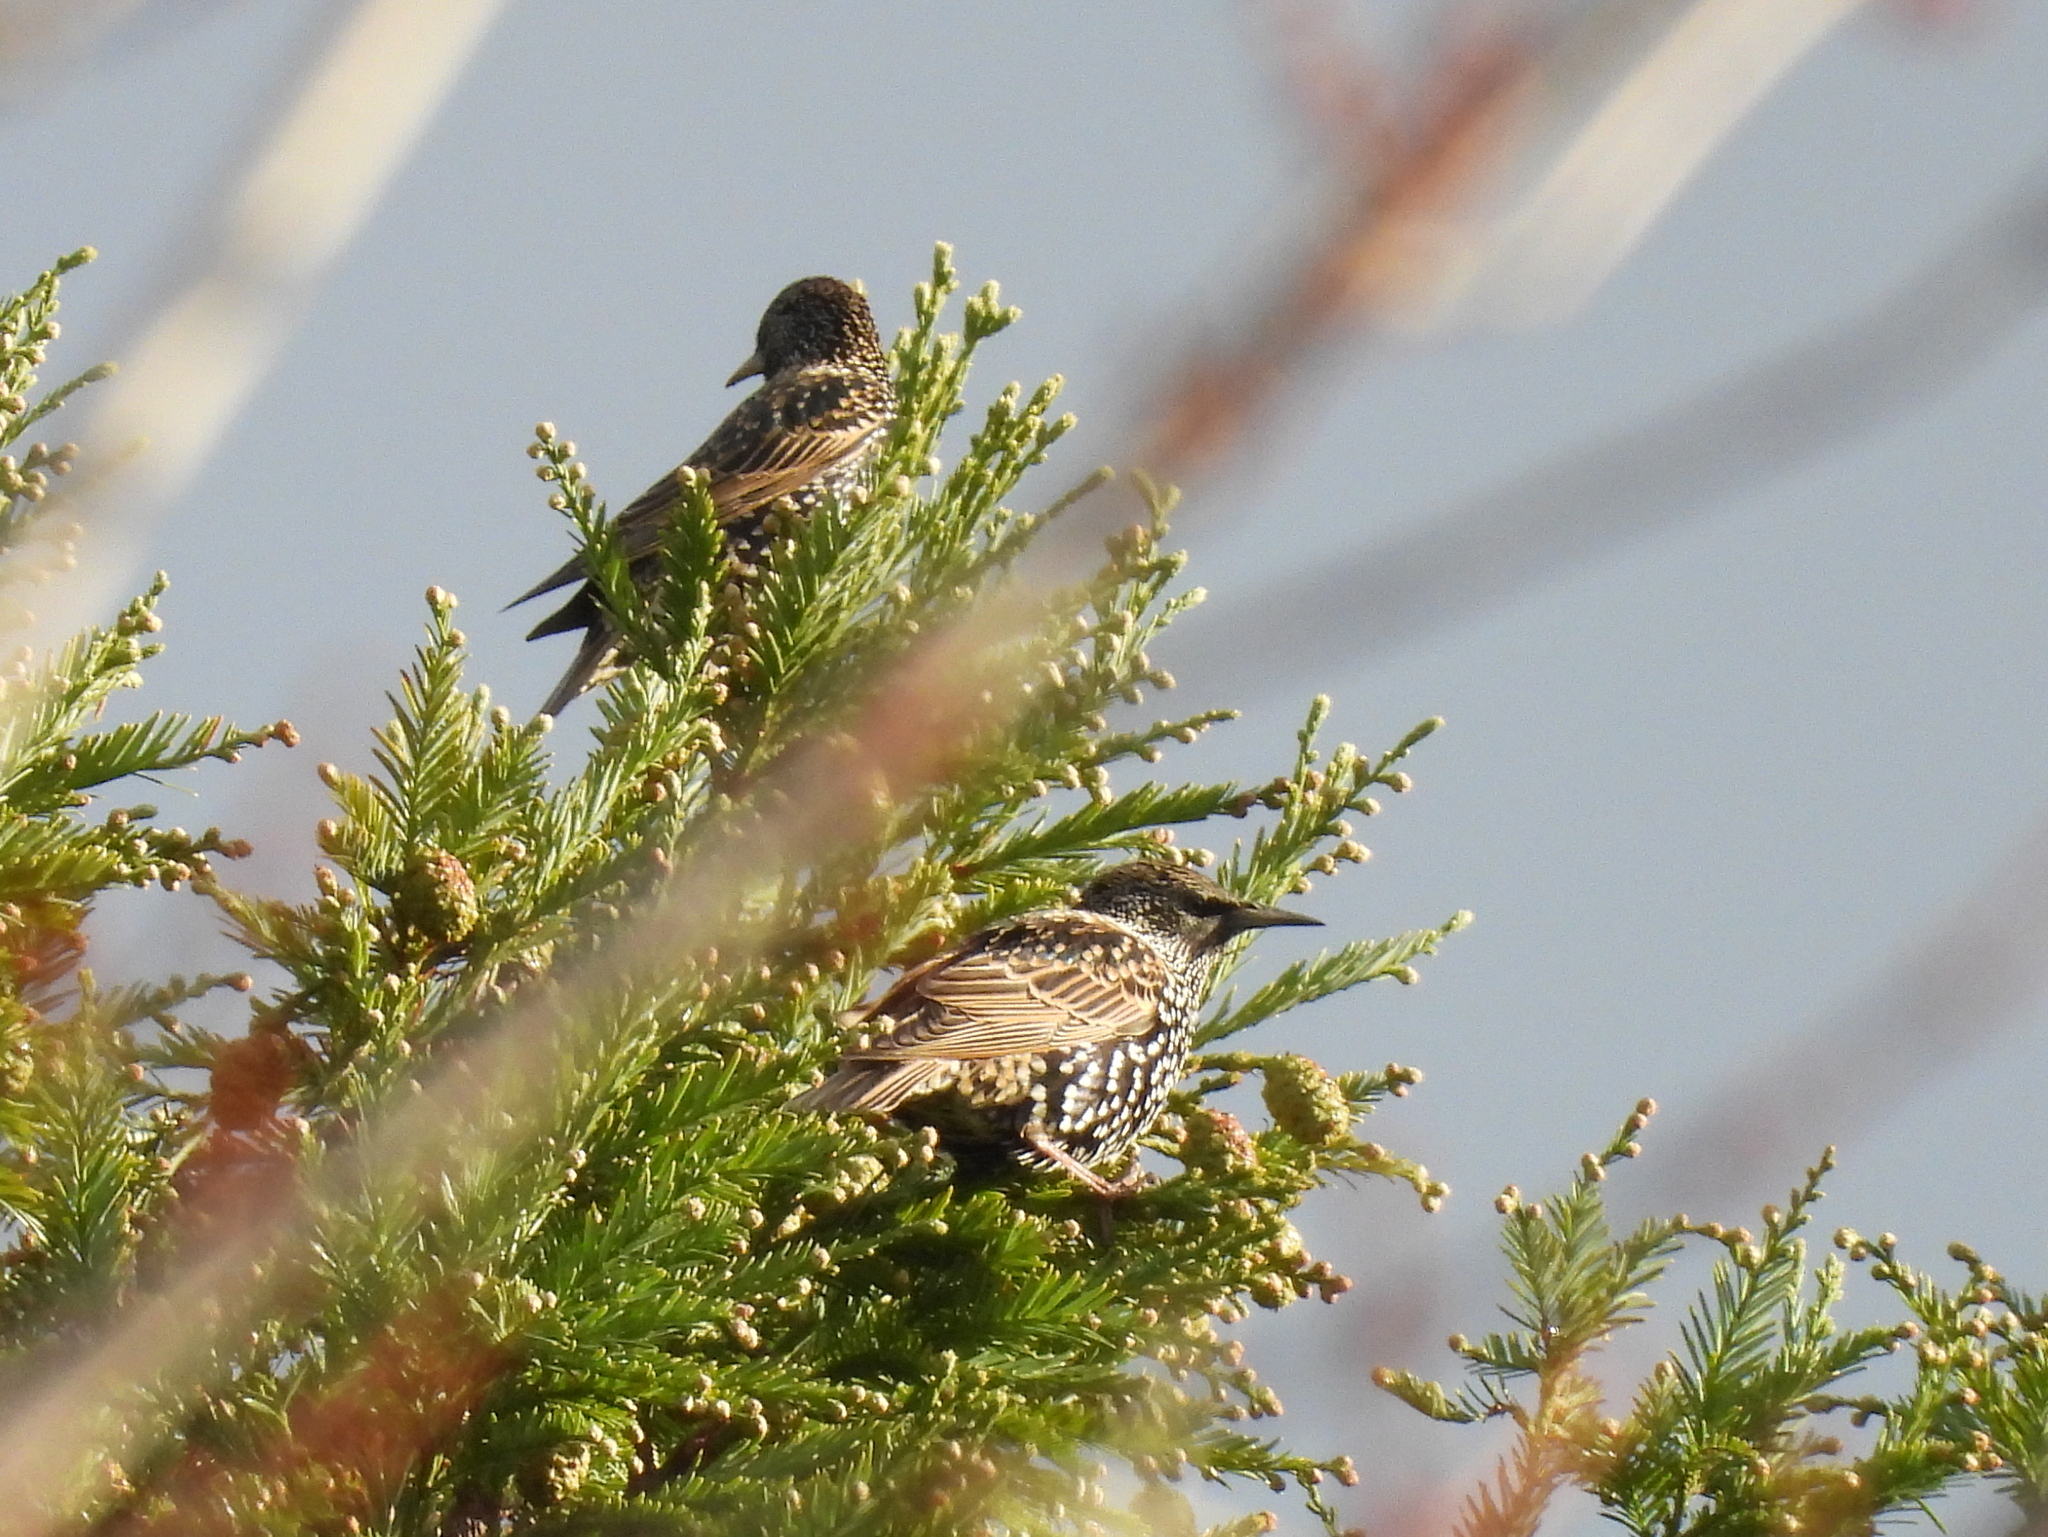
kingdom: Animalia
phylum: Chordata
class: Aves
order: Passeriformes
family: Sturnidae
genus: Sturnus
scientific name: Sturnus vulgaris
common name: Common starling
